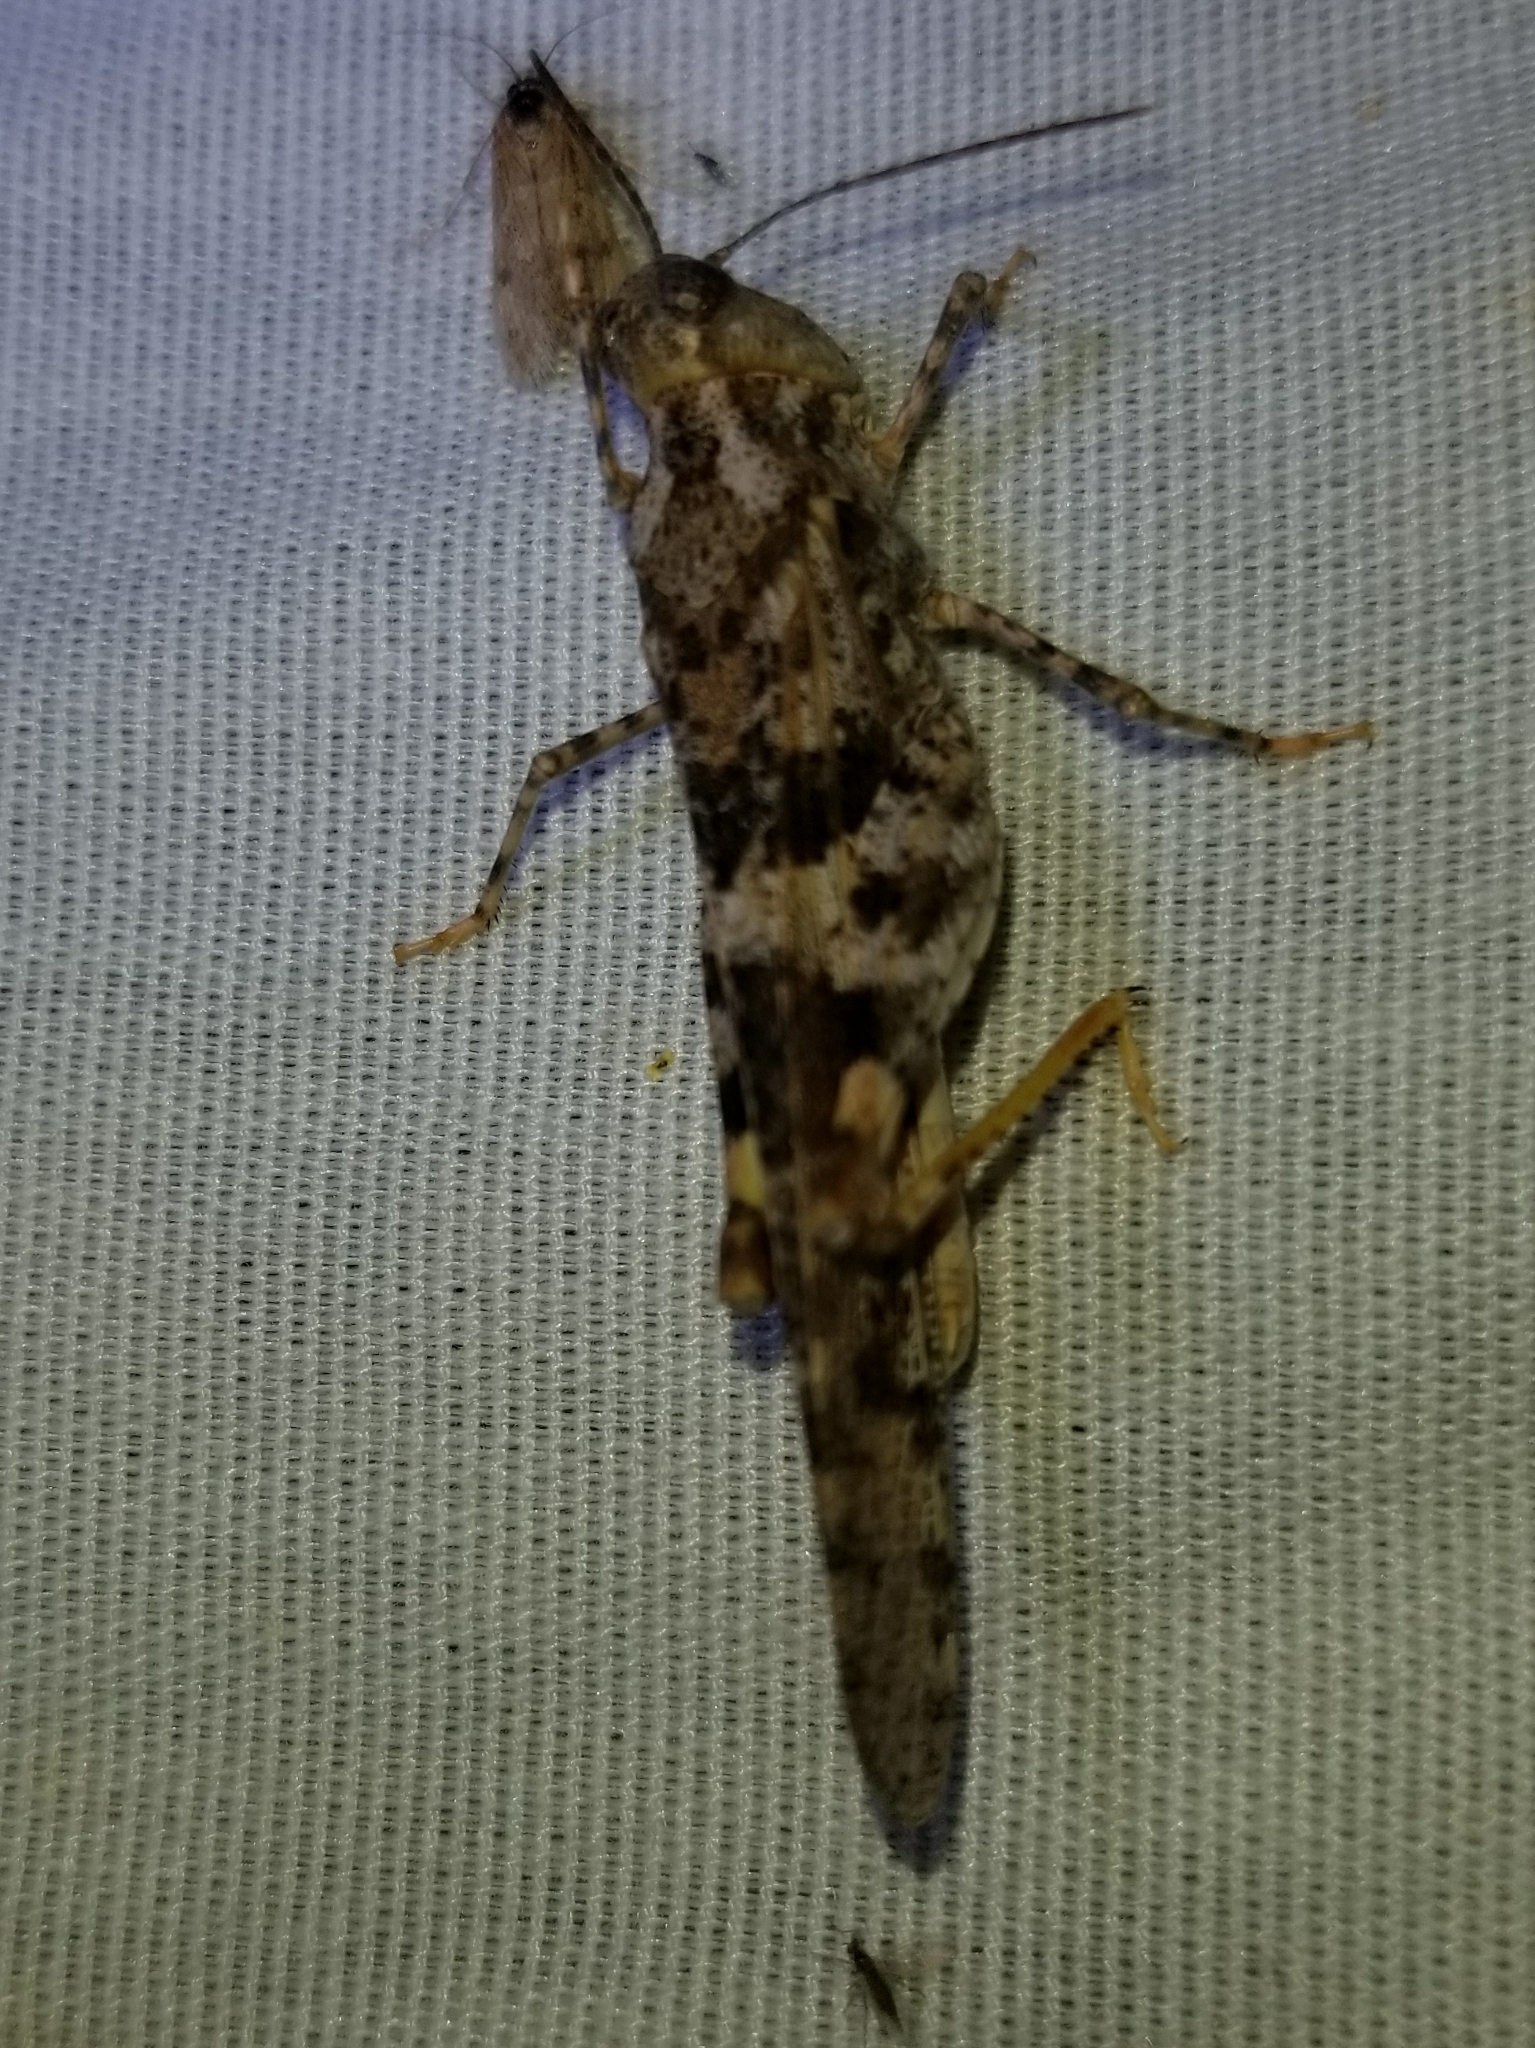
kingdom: Animalia
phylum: Arthropoda
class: Insecta
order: Orthoptera
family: Acrididae
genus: Trimerotropis
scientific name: Trimerotropis pallidipennis
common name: Pallid-winged grasshopper
